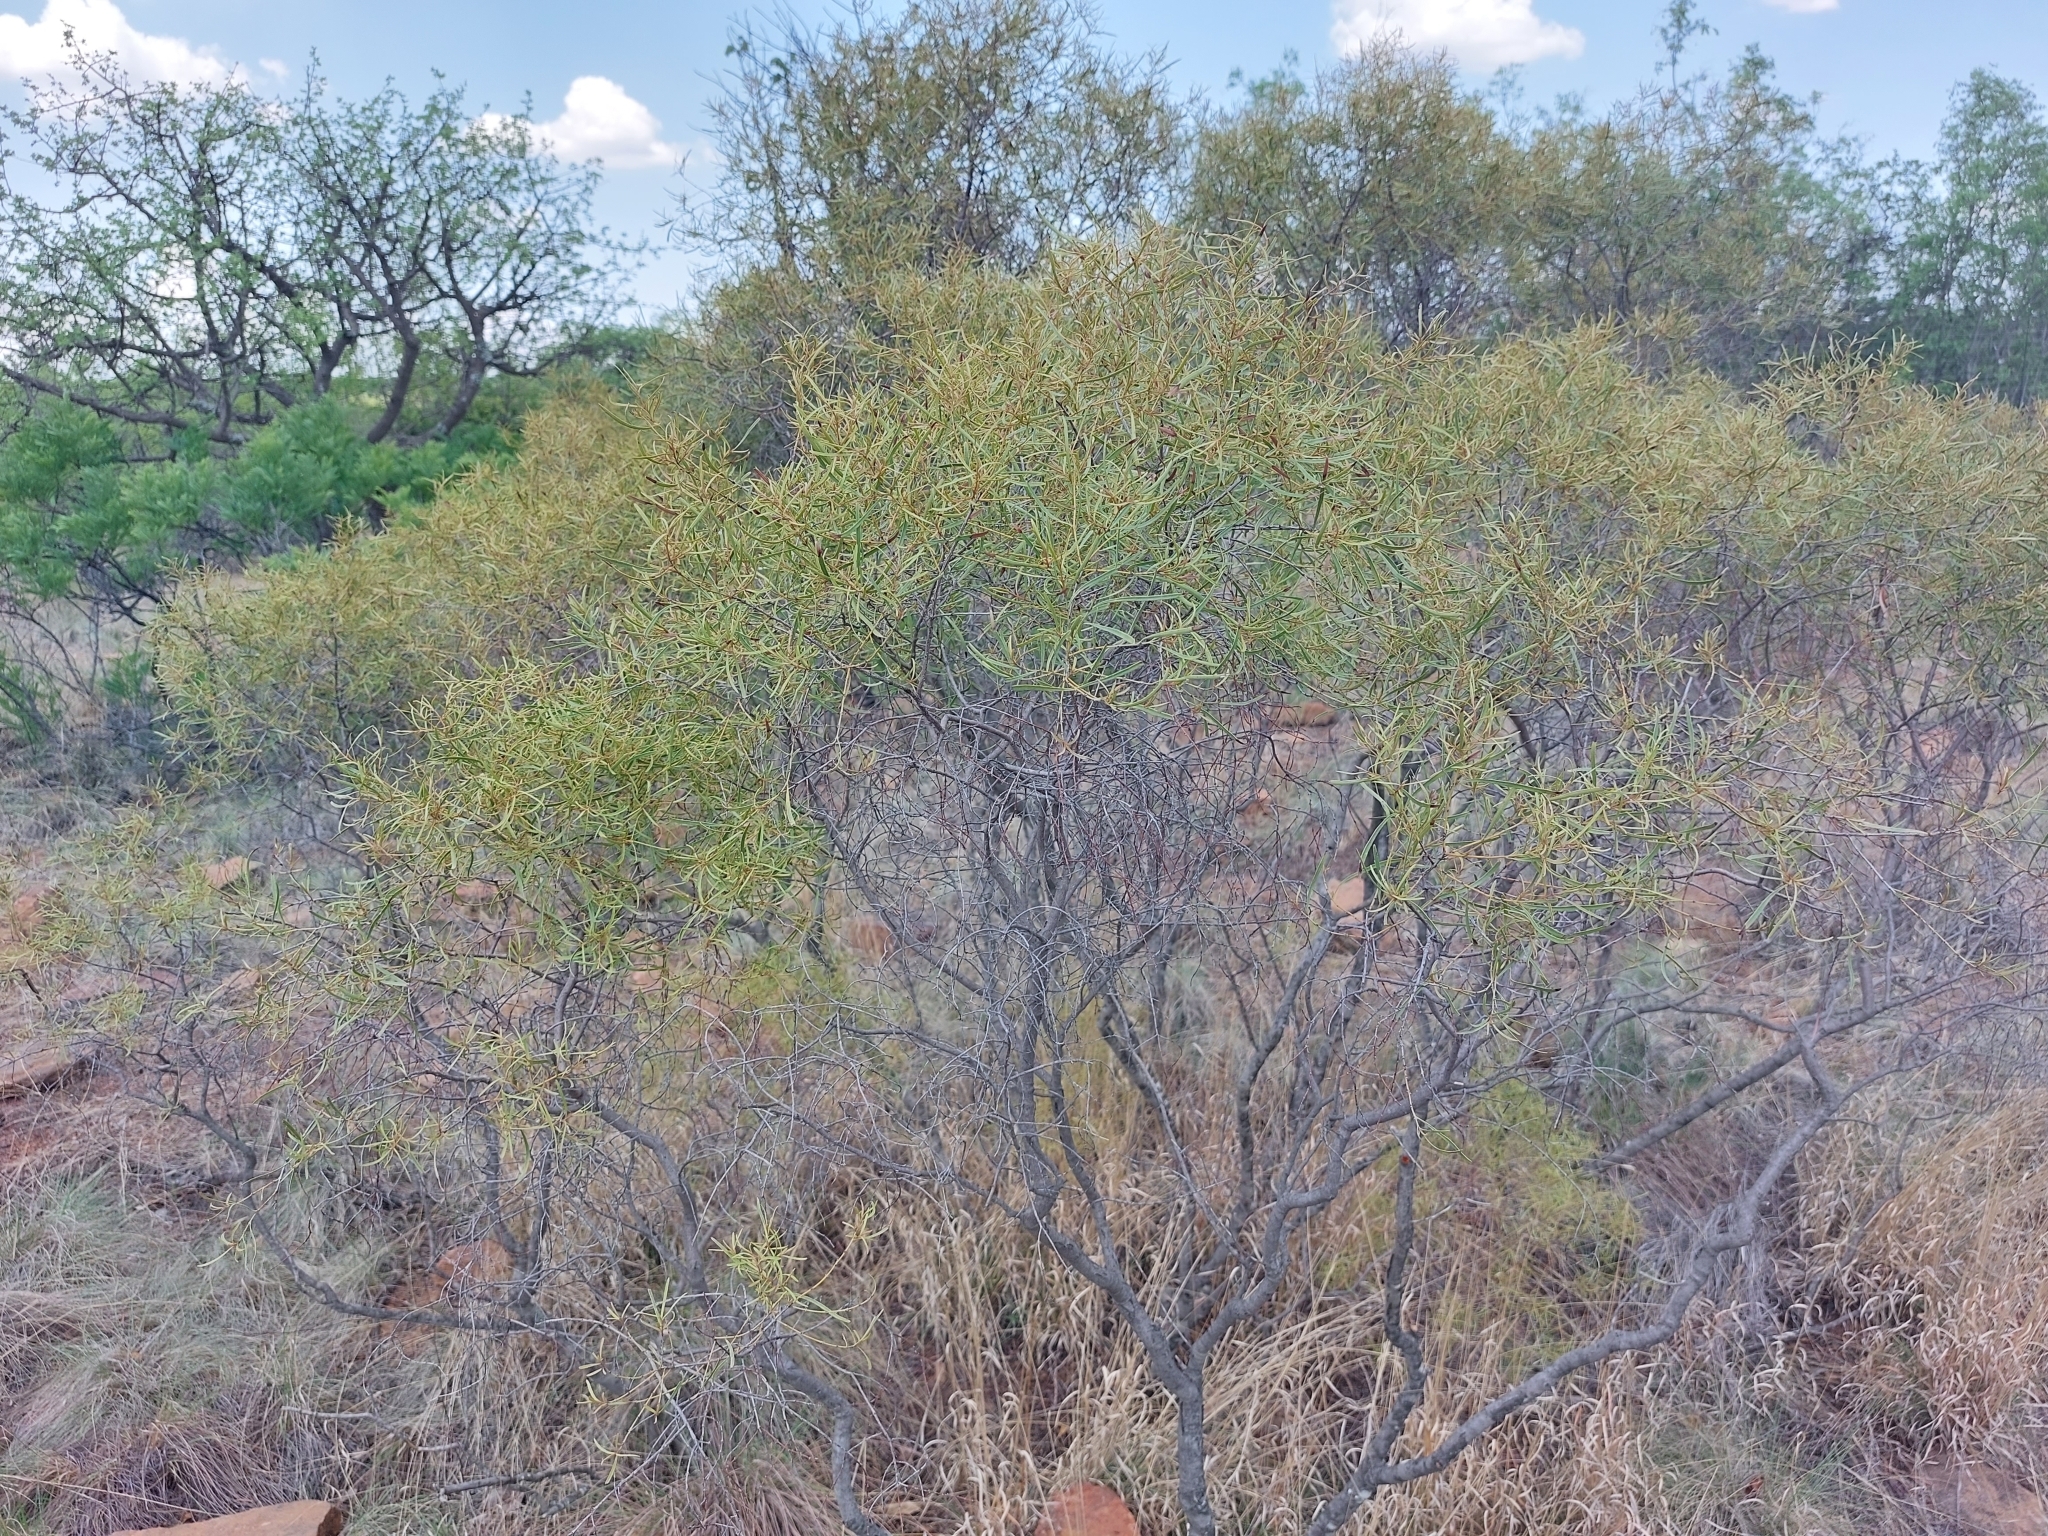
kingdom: Plantae
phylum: Tracheophyta
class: Magnoliopsida
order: Ericales
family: Ebenaceae
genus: Euclea
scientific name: Euclea linearis
